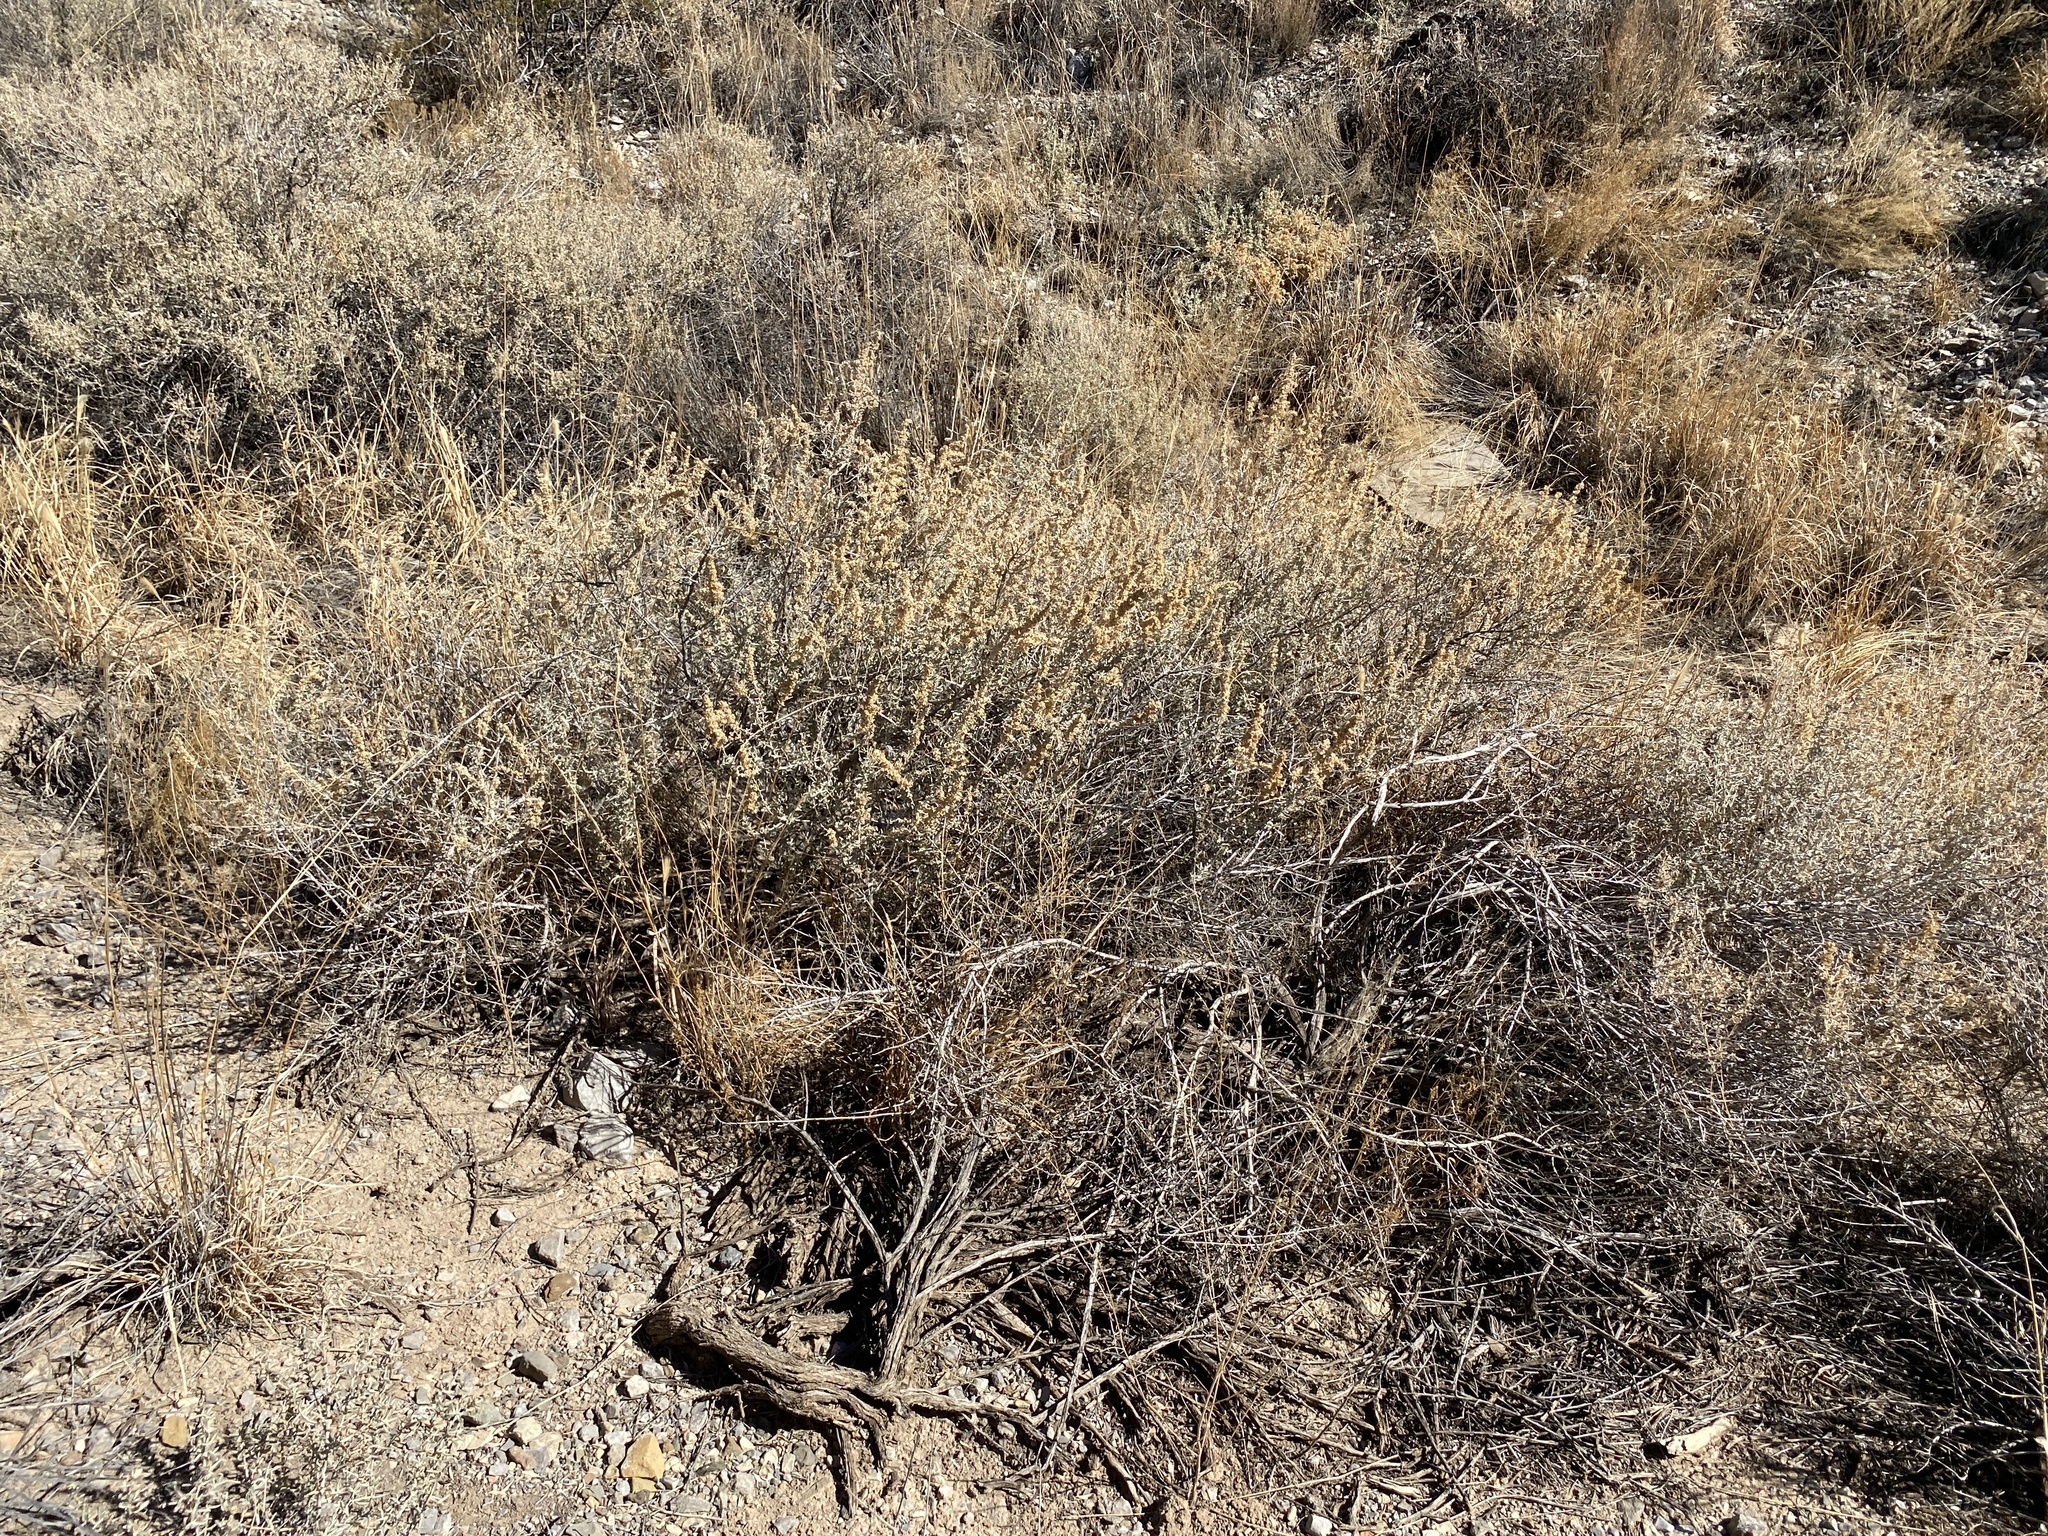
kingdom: Plantae
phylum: Tracheophyta
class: Magnoliopsida
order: Caryophyllales
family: Amaranthaceae
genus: Atriplex
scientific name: Atriplex canescens
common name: Four-wing saltbush
